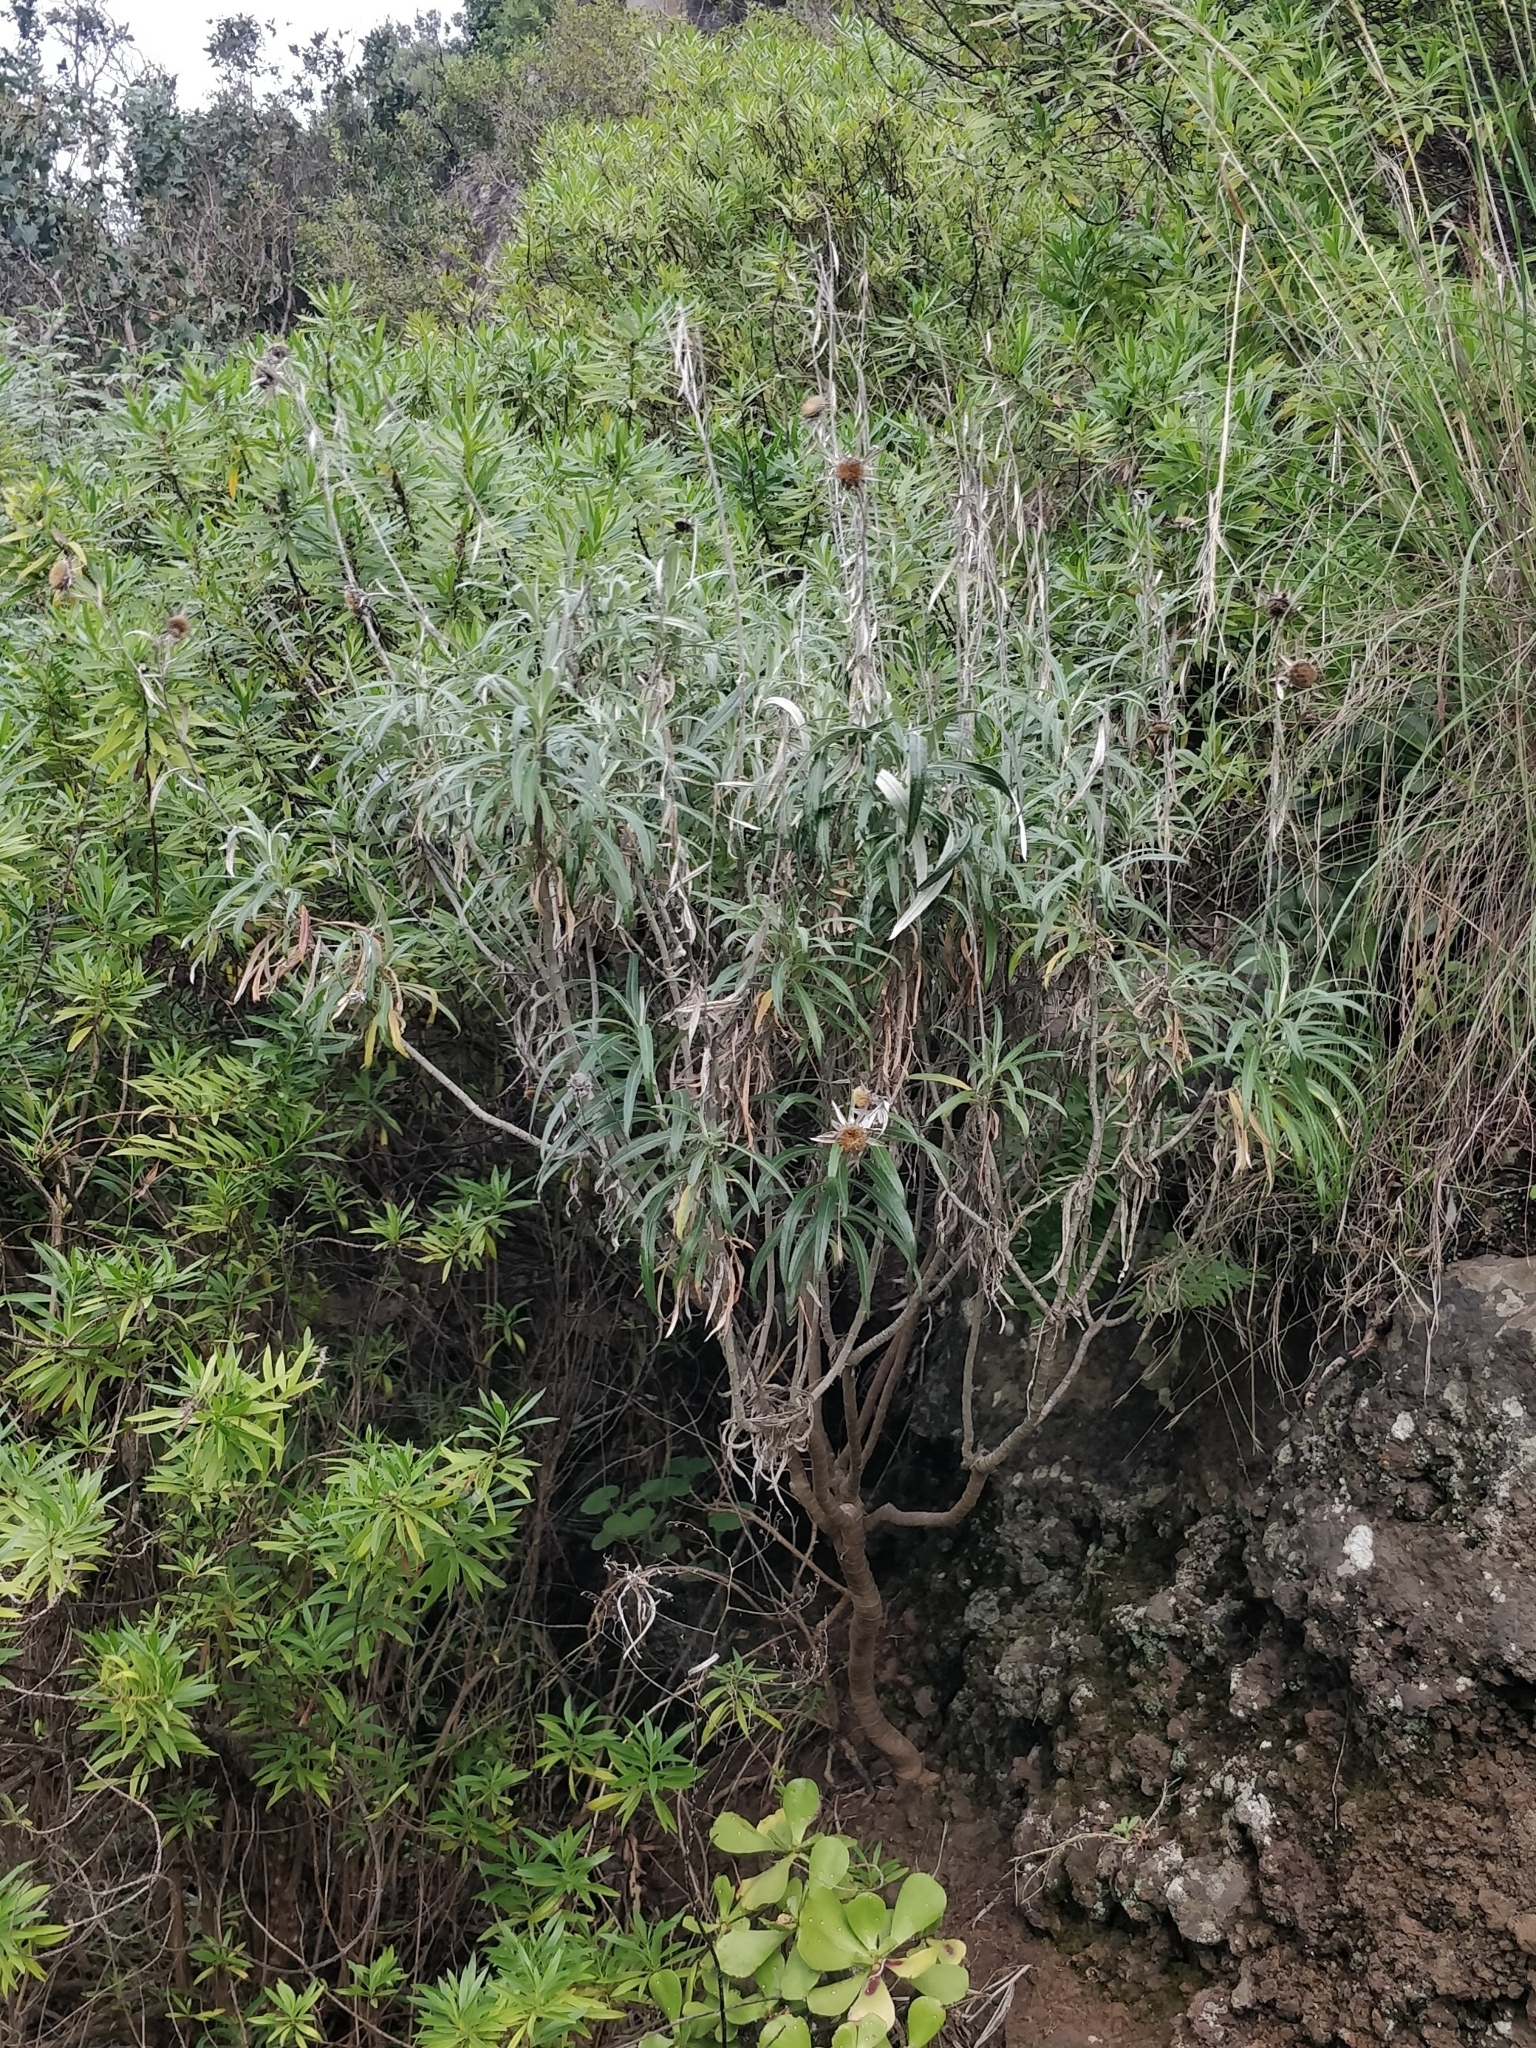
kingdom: Plantae
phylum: Tracheophyta
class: Magnoliopsida
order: Asterales
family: Asteraceae
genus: Carlina
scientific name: Carlina salicifolia
